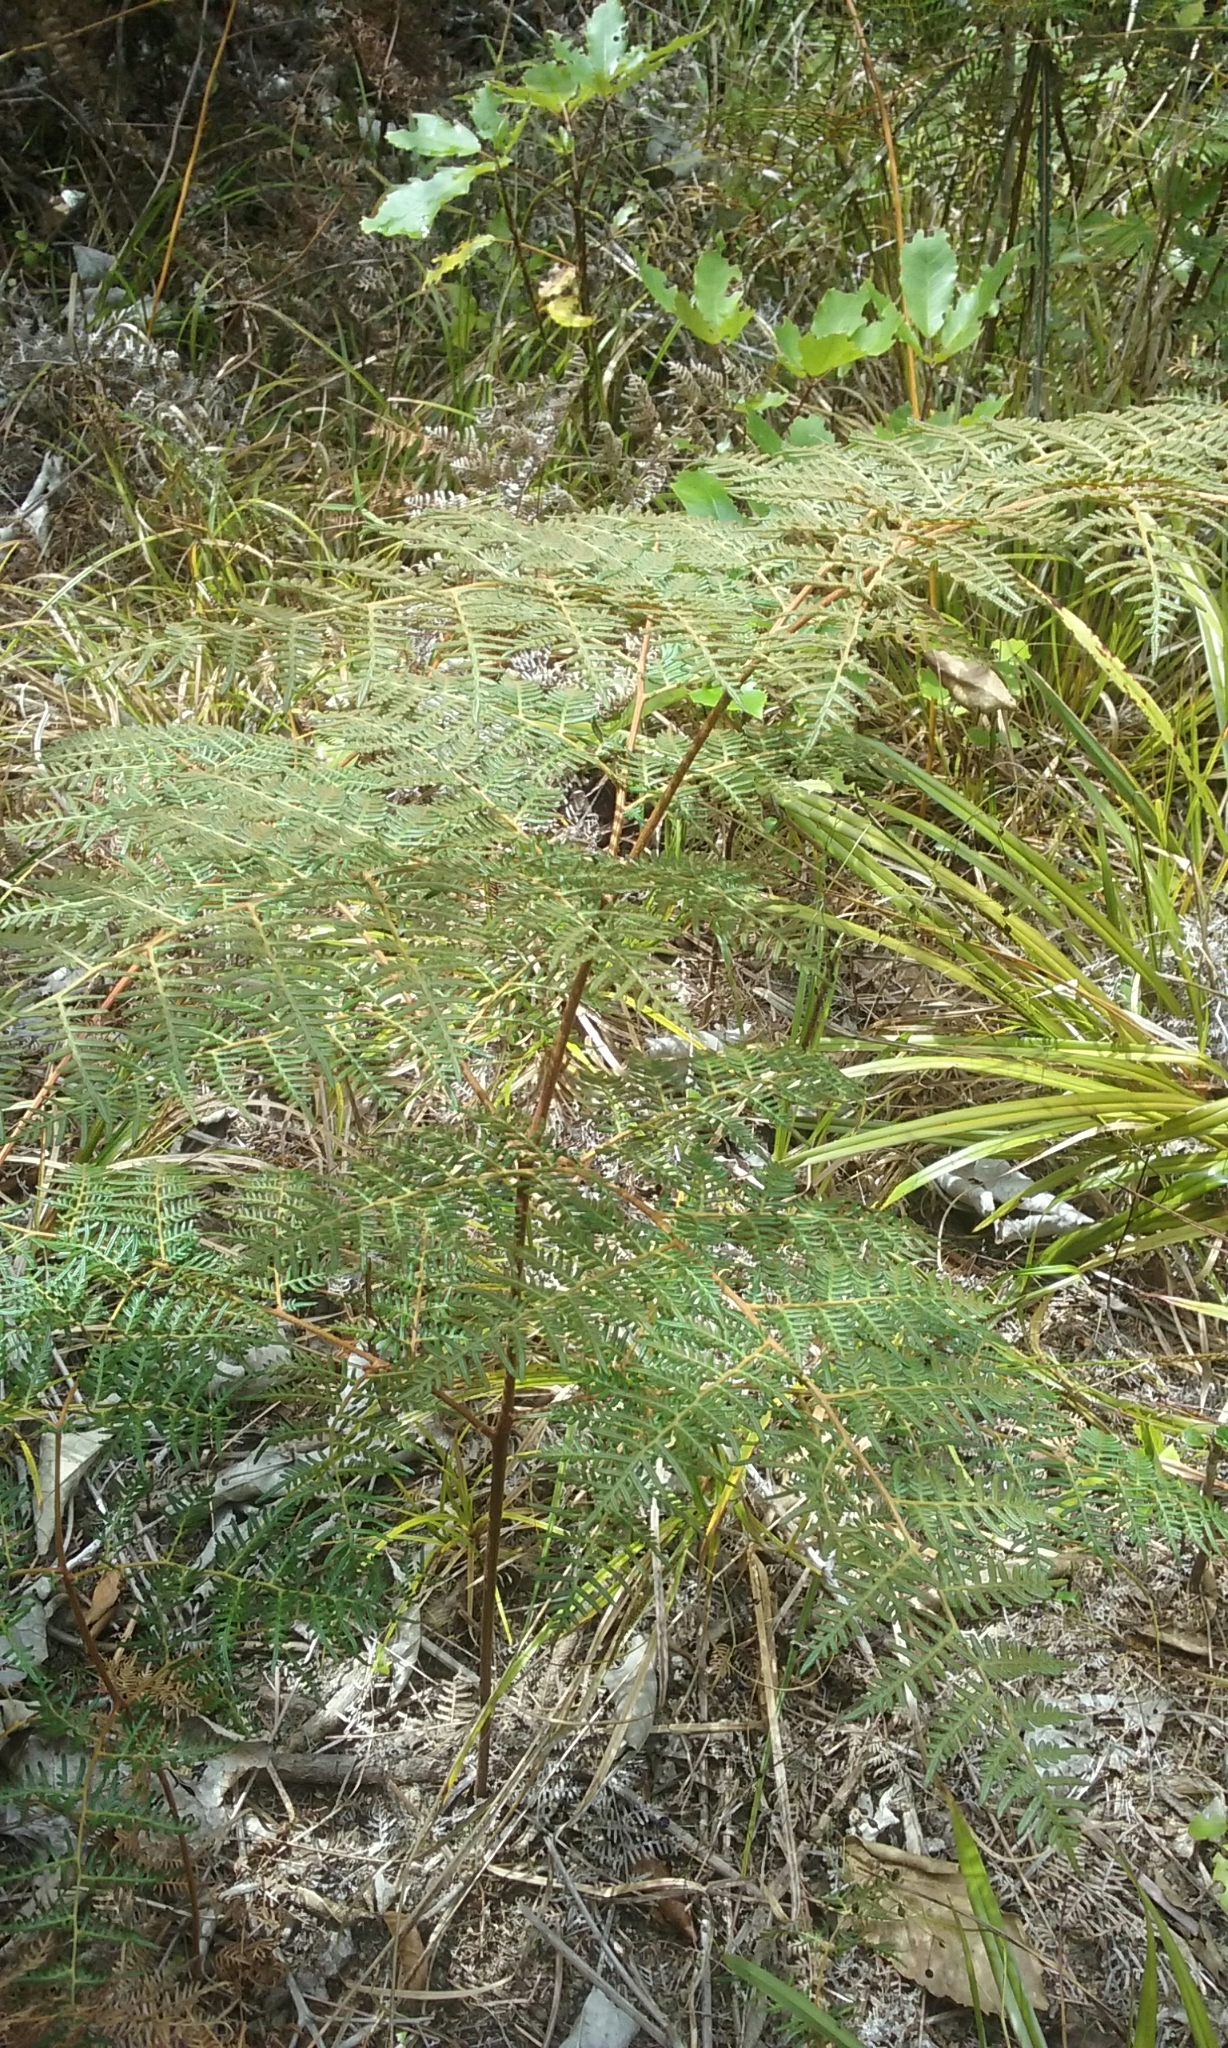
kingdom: Plantae
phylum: Tracheophyta
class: Polypodiopsida
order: Polypodiales
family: Dennstaedtiaceae
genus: Pteridium
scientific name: Pteridium esculentum
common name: Bracken fern
